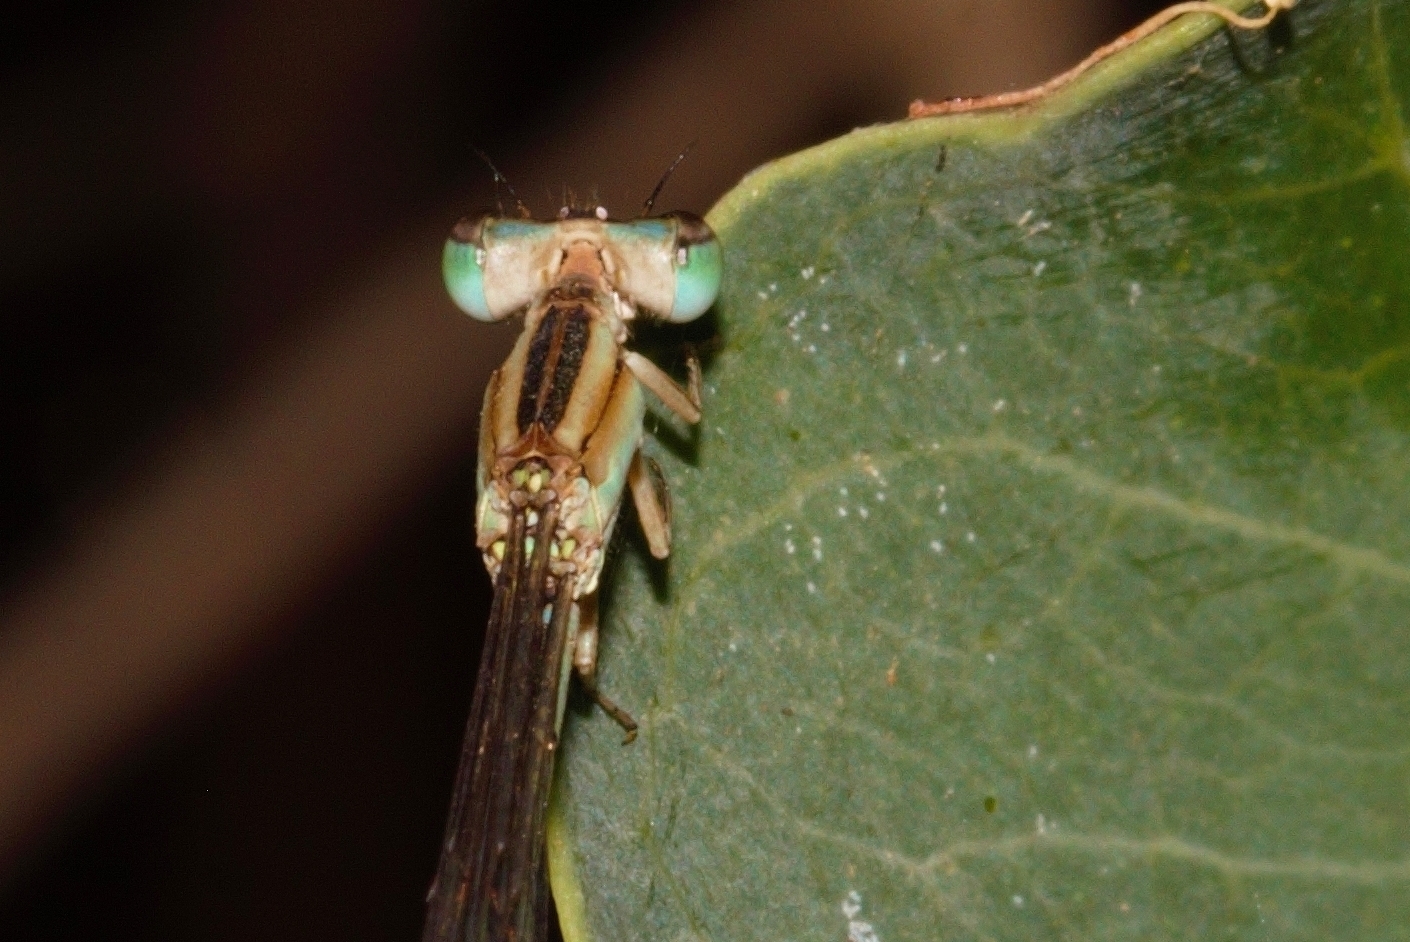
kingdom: Animalia
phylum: Arthropoda
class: Insecta
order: Odonata
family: Coenagrionidae
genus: Africallagma
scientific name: Africallagma sinuatum
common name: Peak bluet
